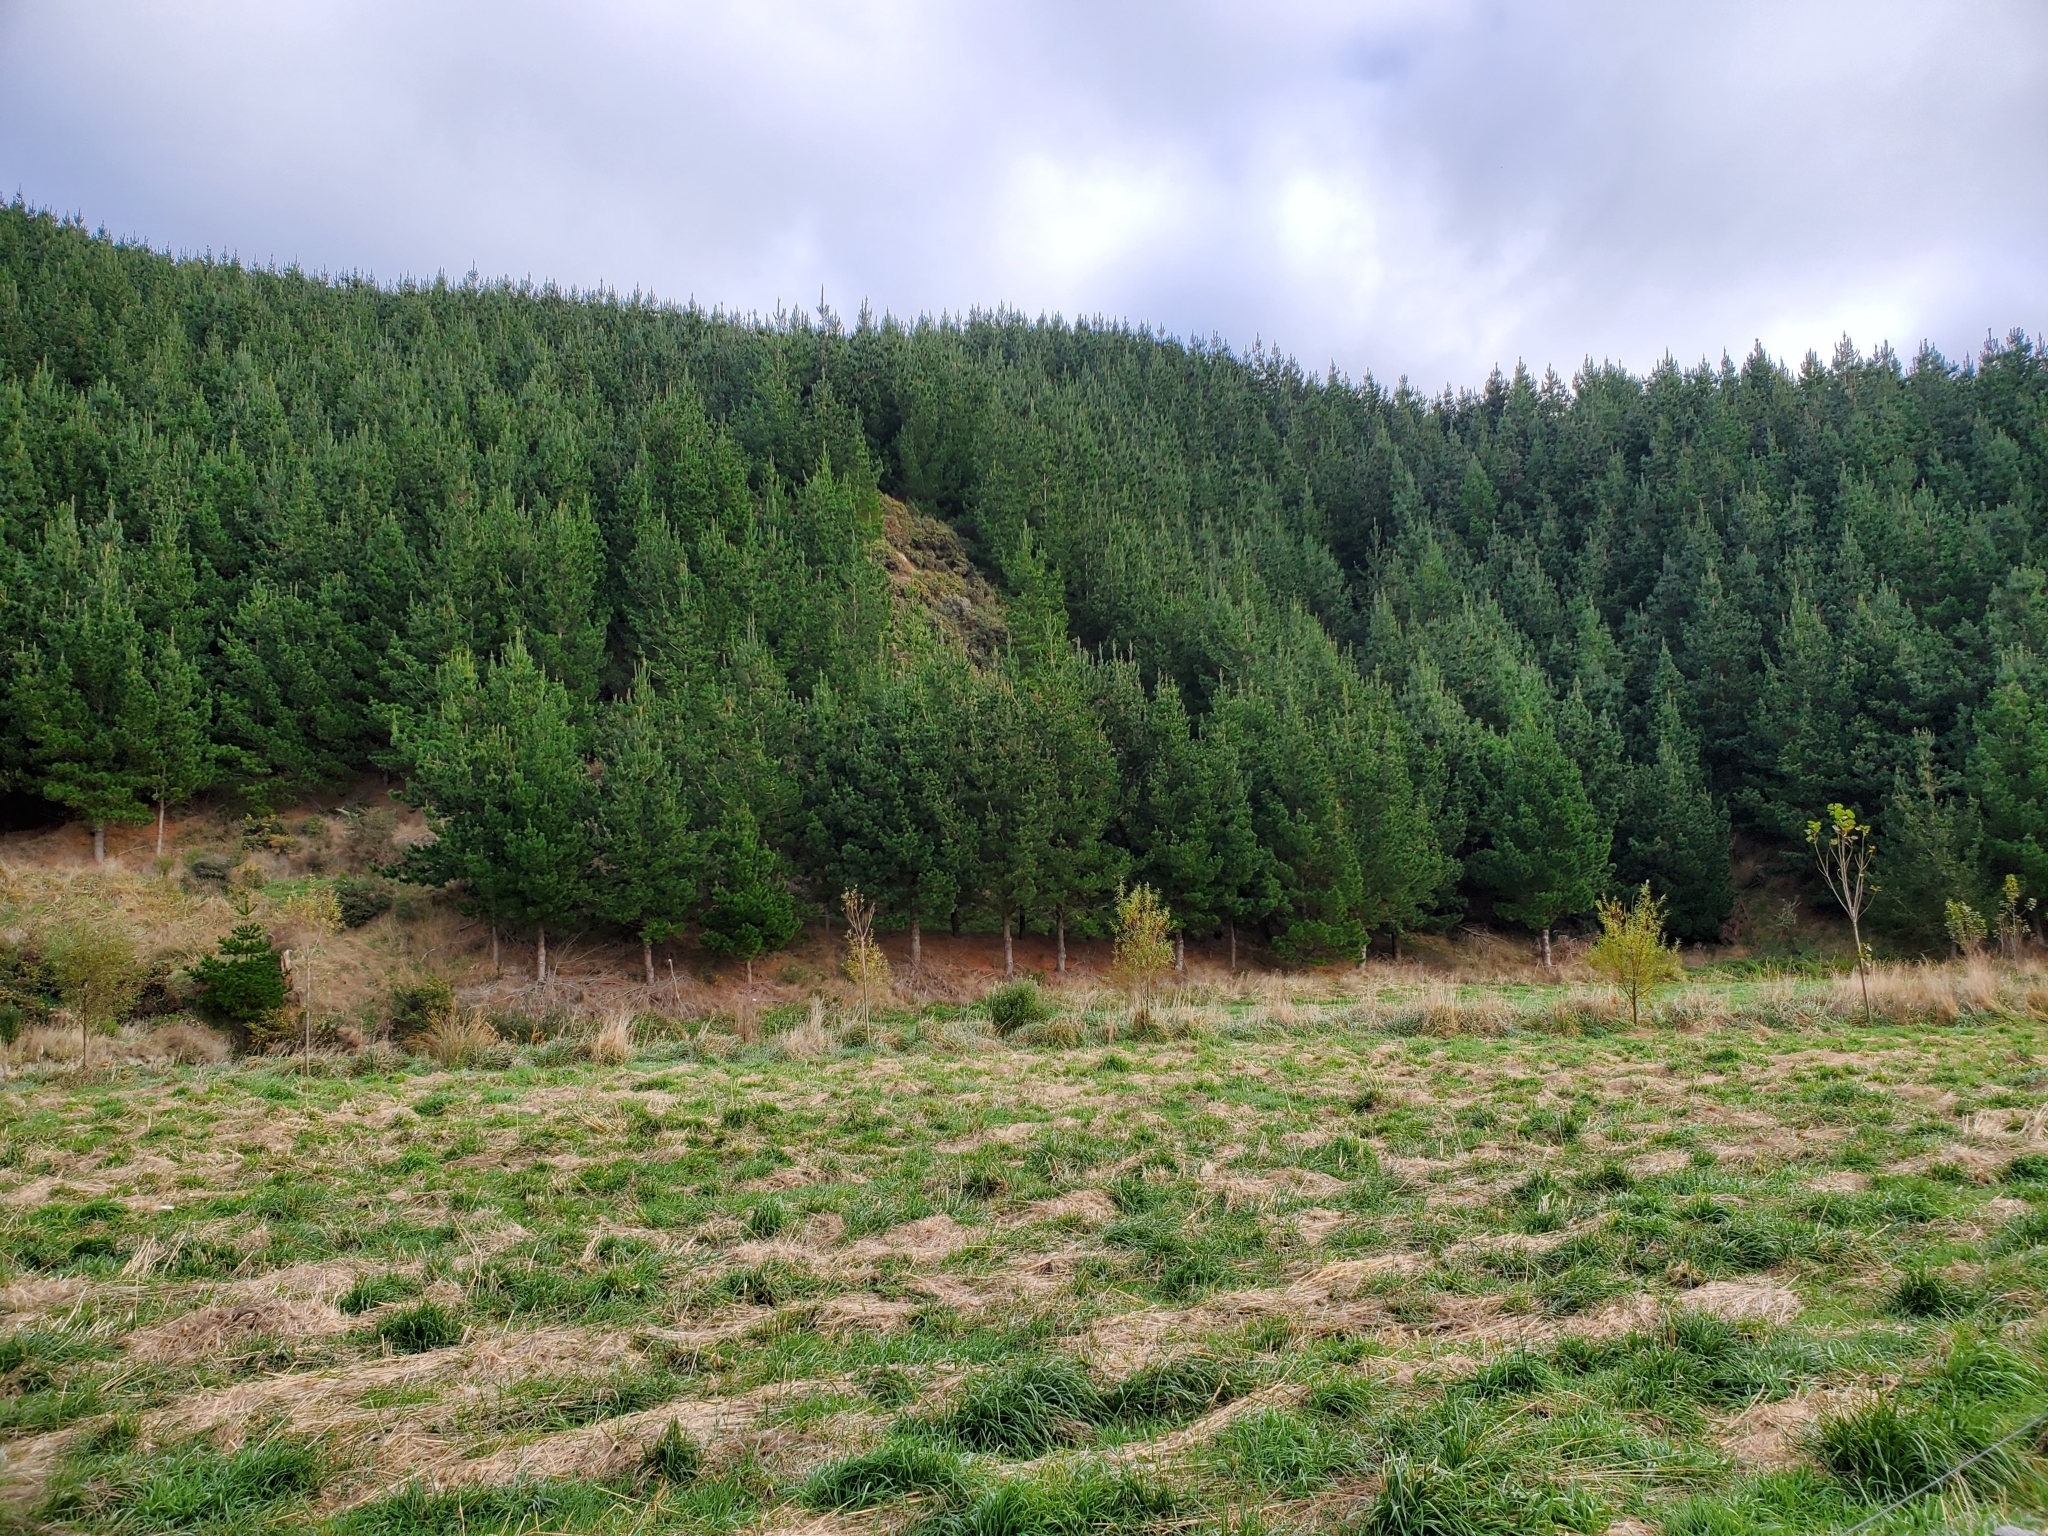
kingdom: Animalia
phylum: Chordata
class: Aves
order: Galliformes
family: Phasianidae
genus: Phasianus
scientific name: Phasianus colchicus
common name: Common pheasant
